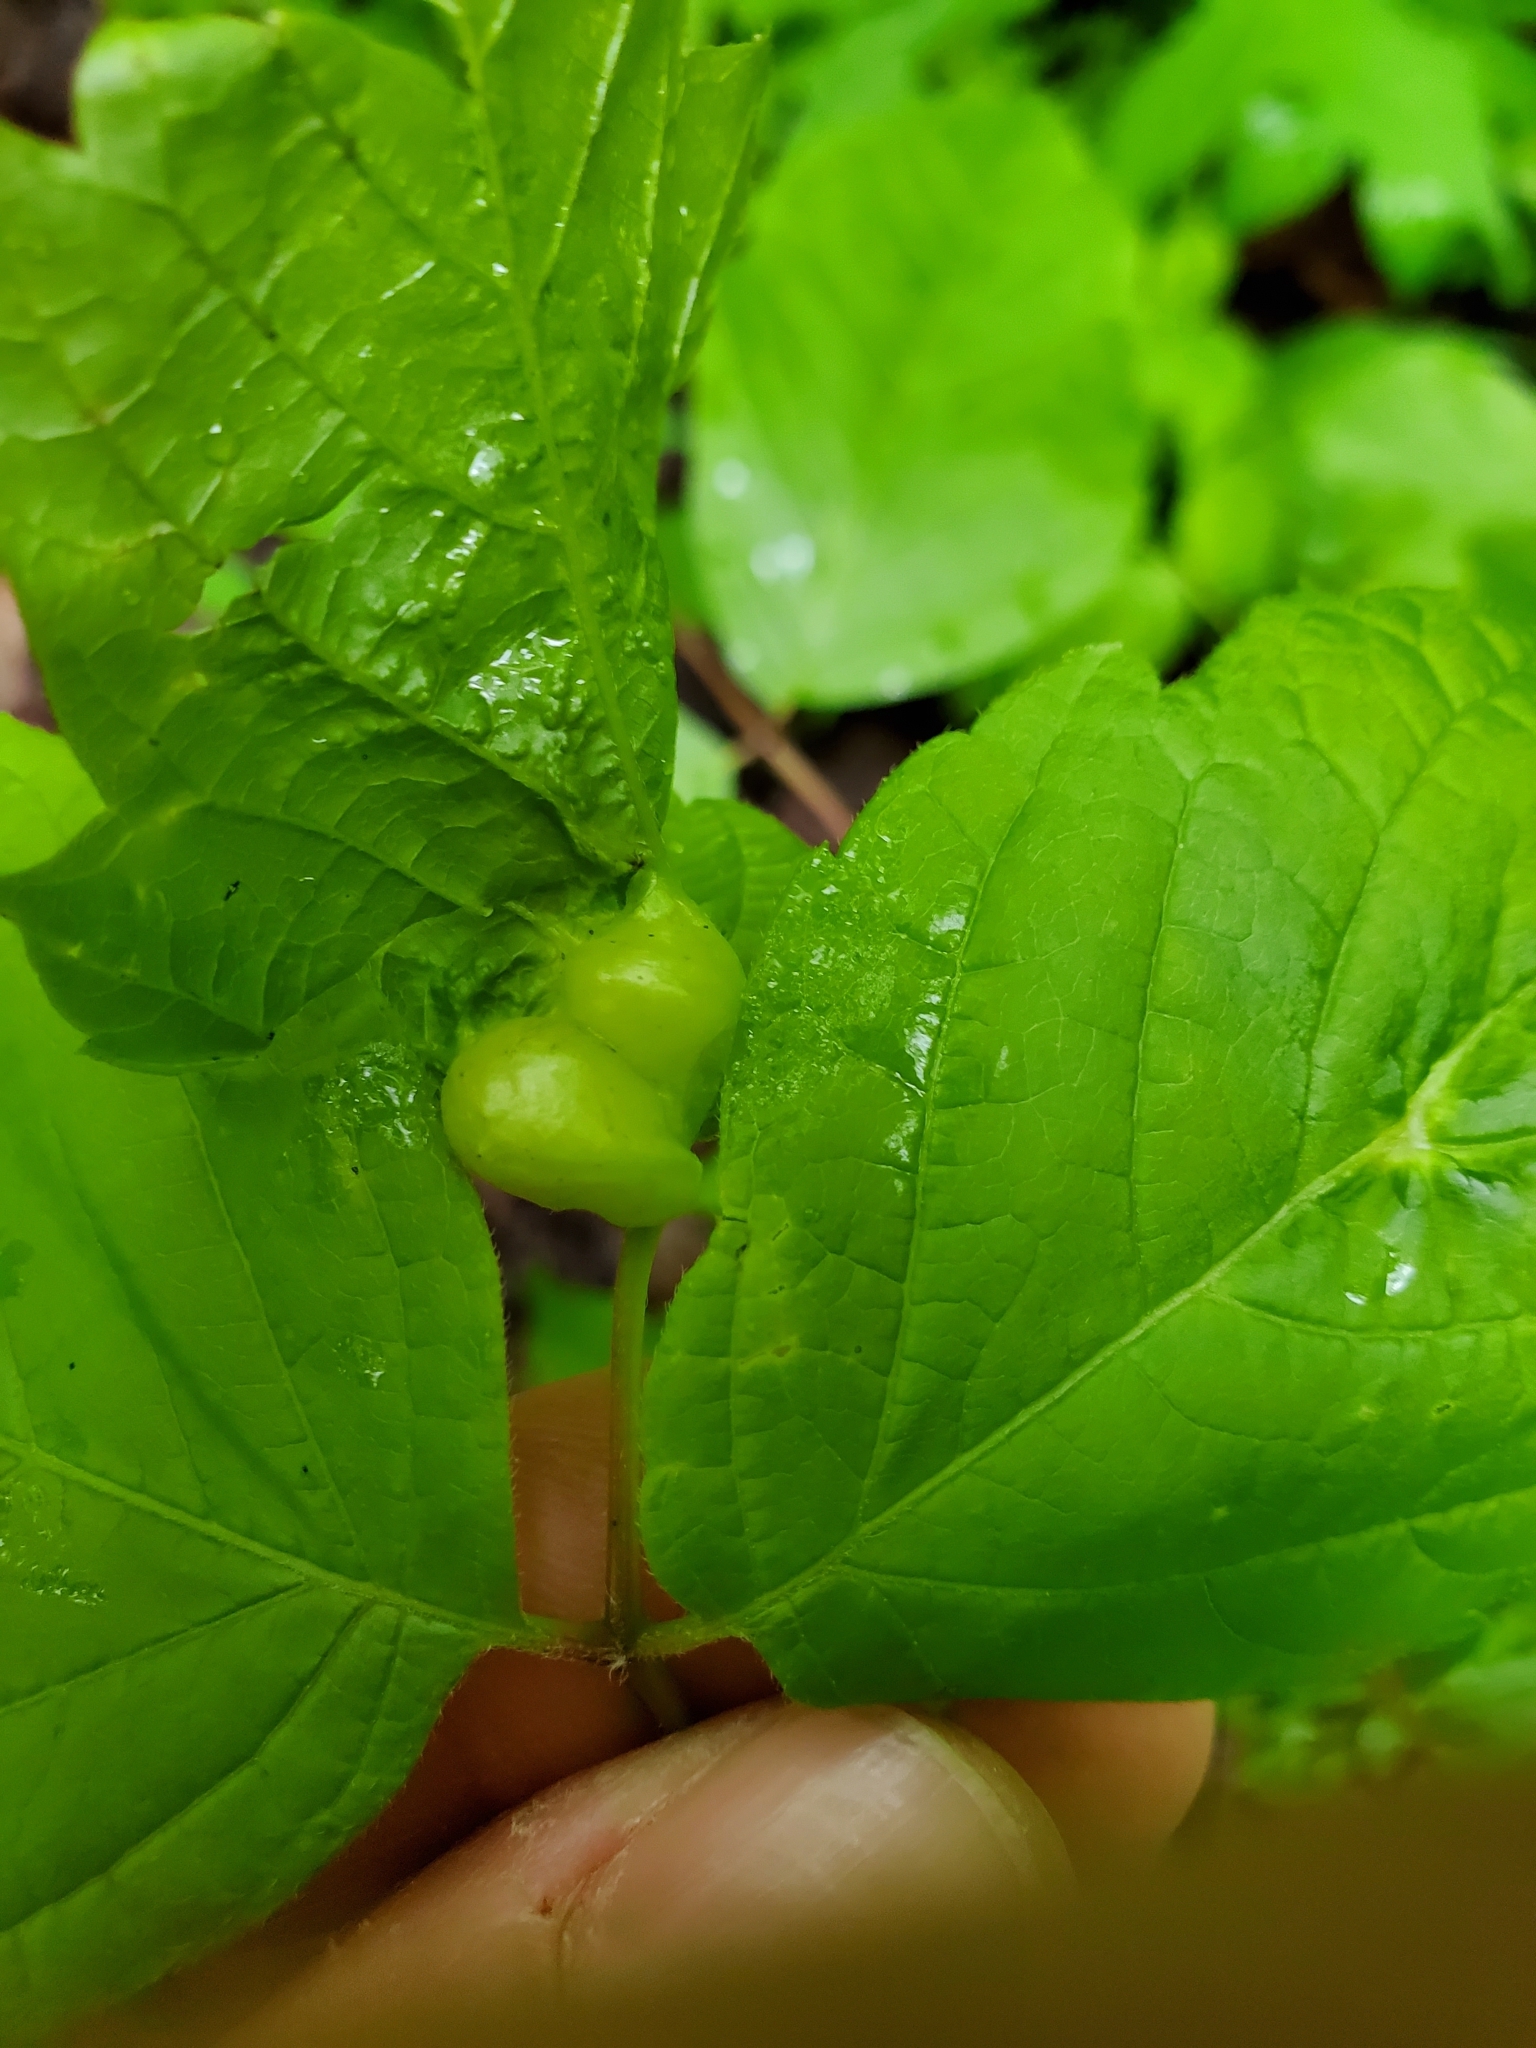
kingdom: Animalia
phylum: Arthropoda
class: Insecta
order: Diptera
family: Cecidomyiidae
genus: Contarinia
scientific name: Contarinia negundinis
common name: Boxelder budgall midge
